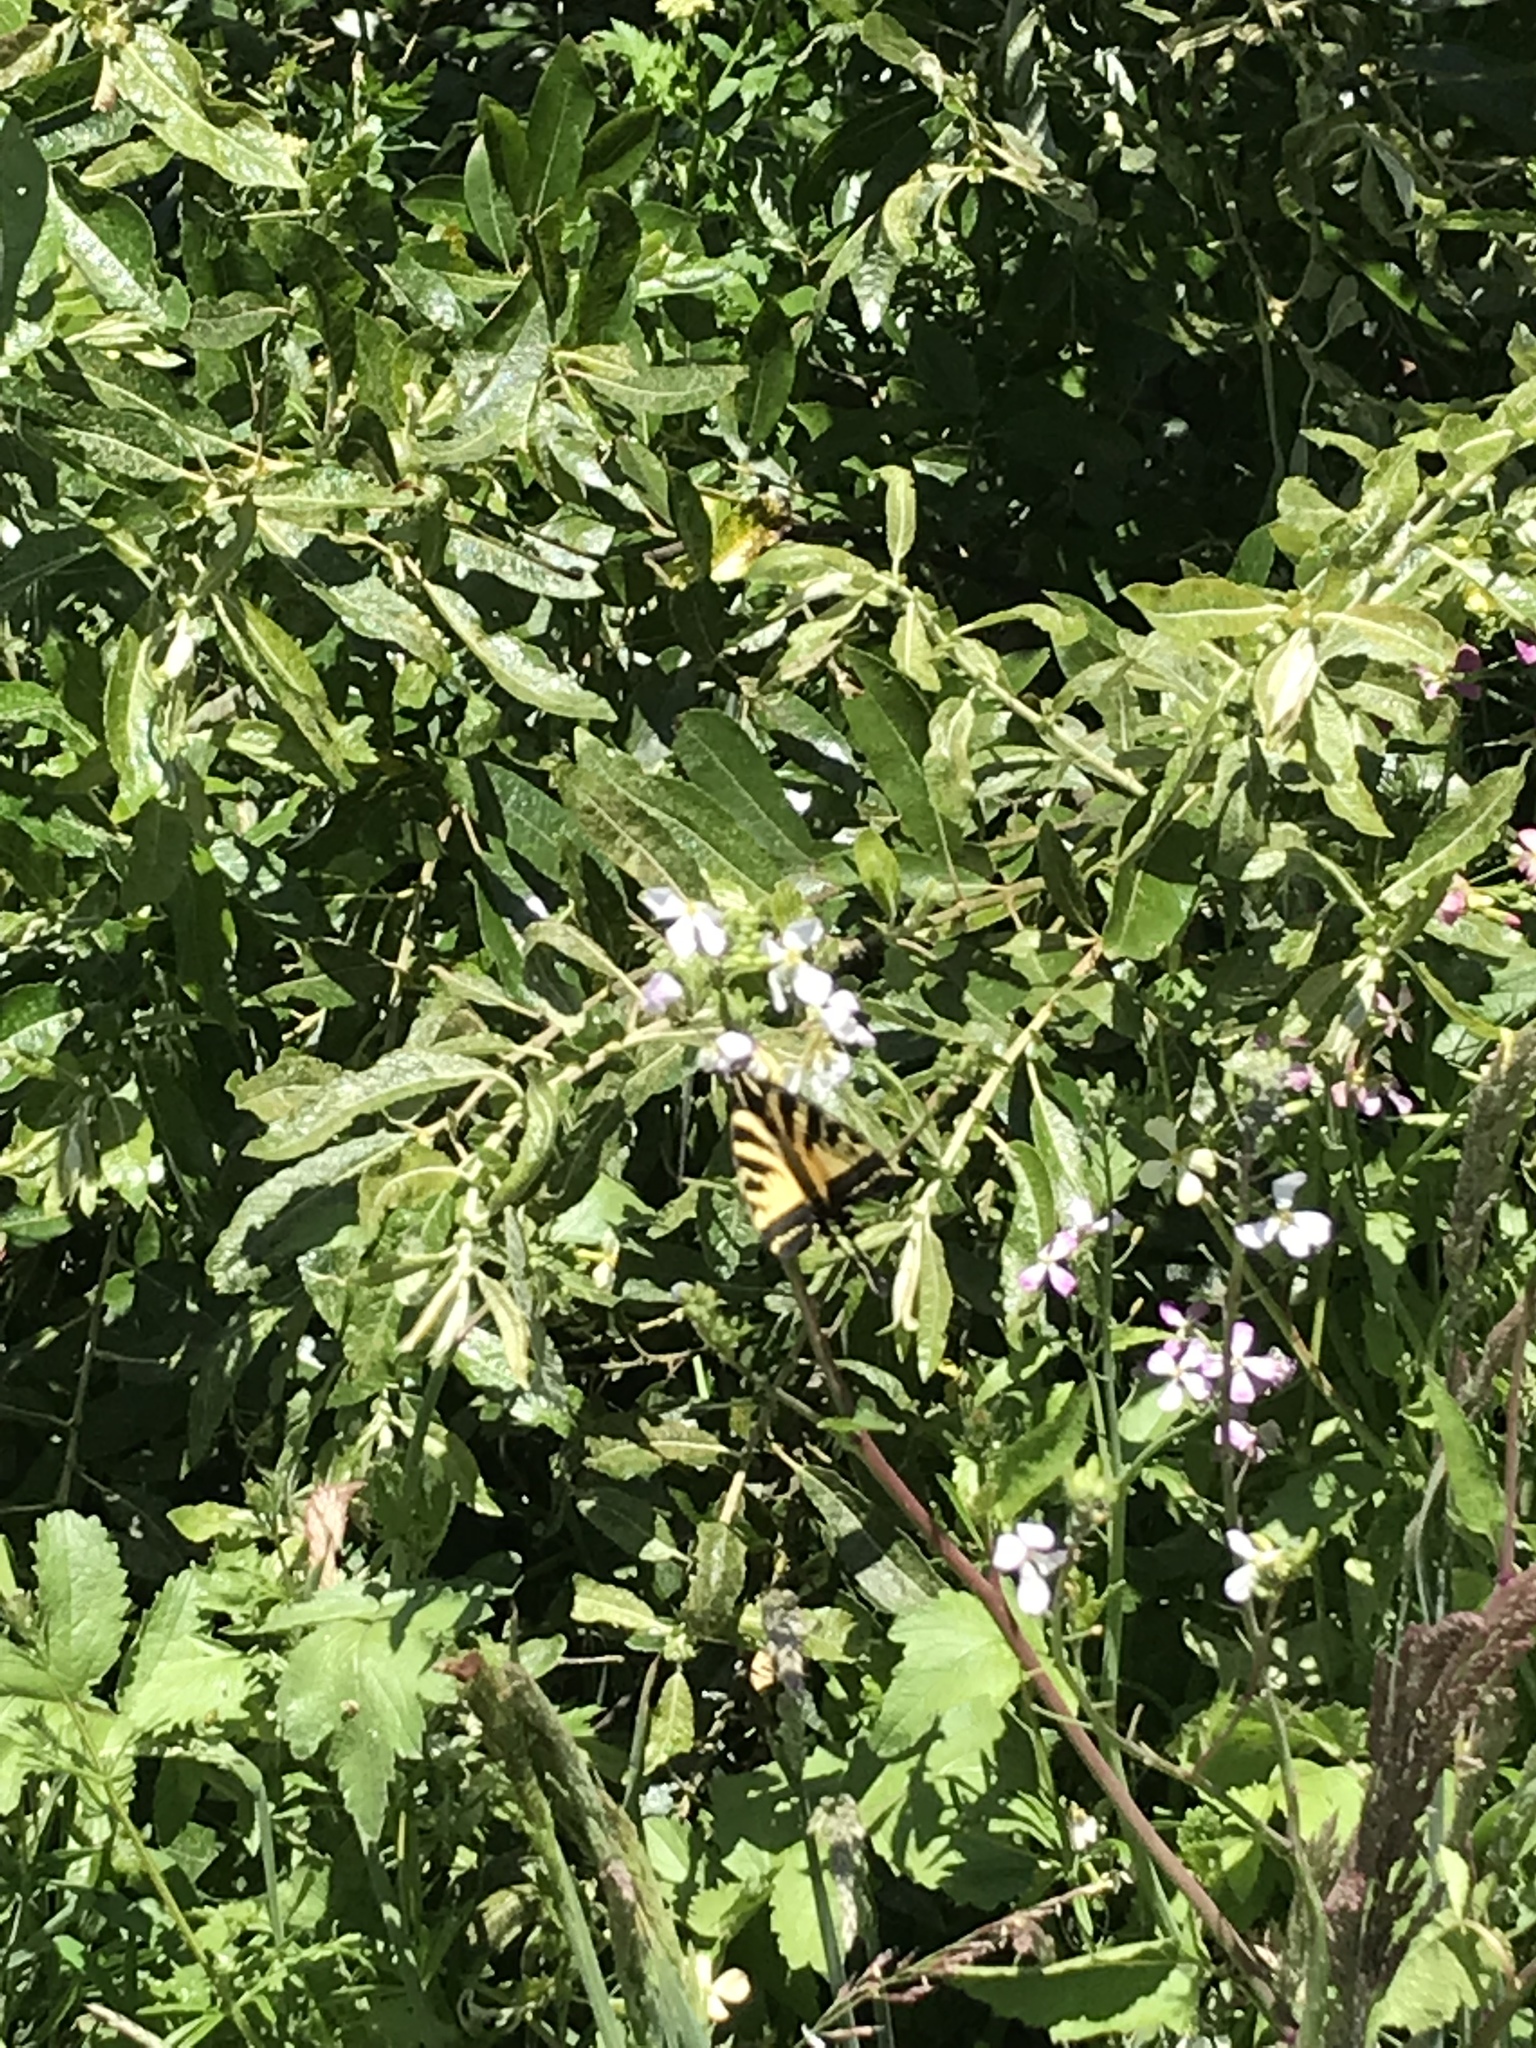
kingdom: Animalia
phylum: Arthropoda
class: Insecta
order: Lepidoptera
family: Papilionidae
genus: Papilio
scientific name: Papilio rutulus
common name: Western tiger swallowtail
